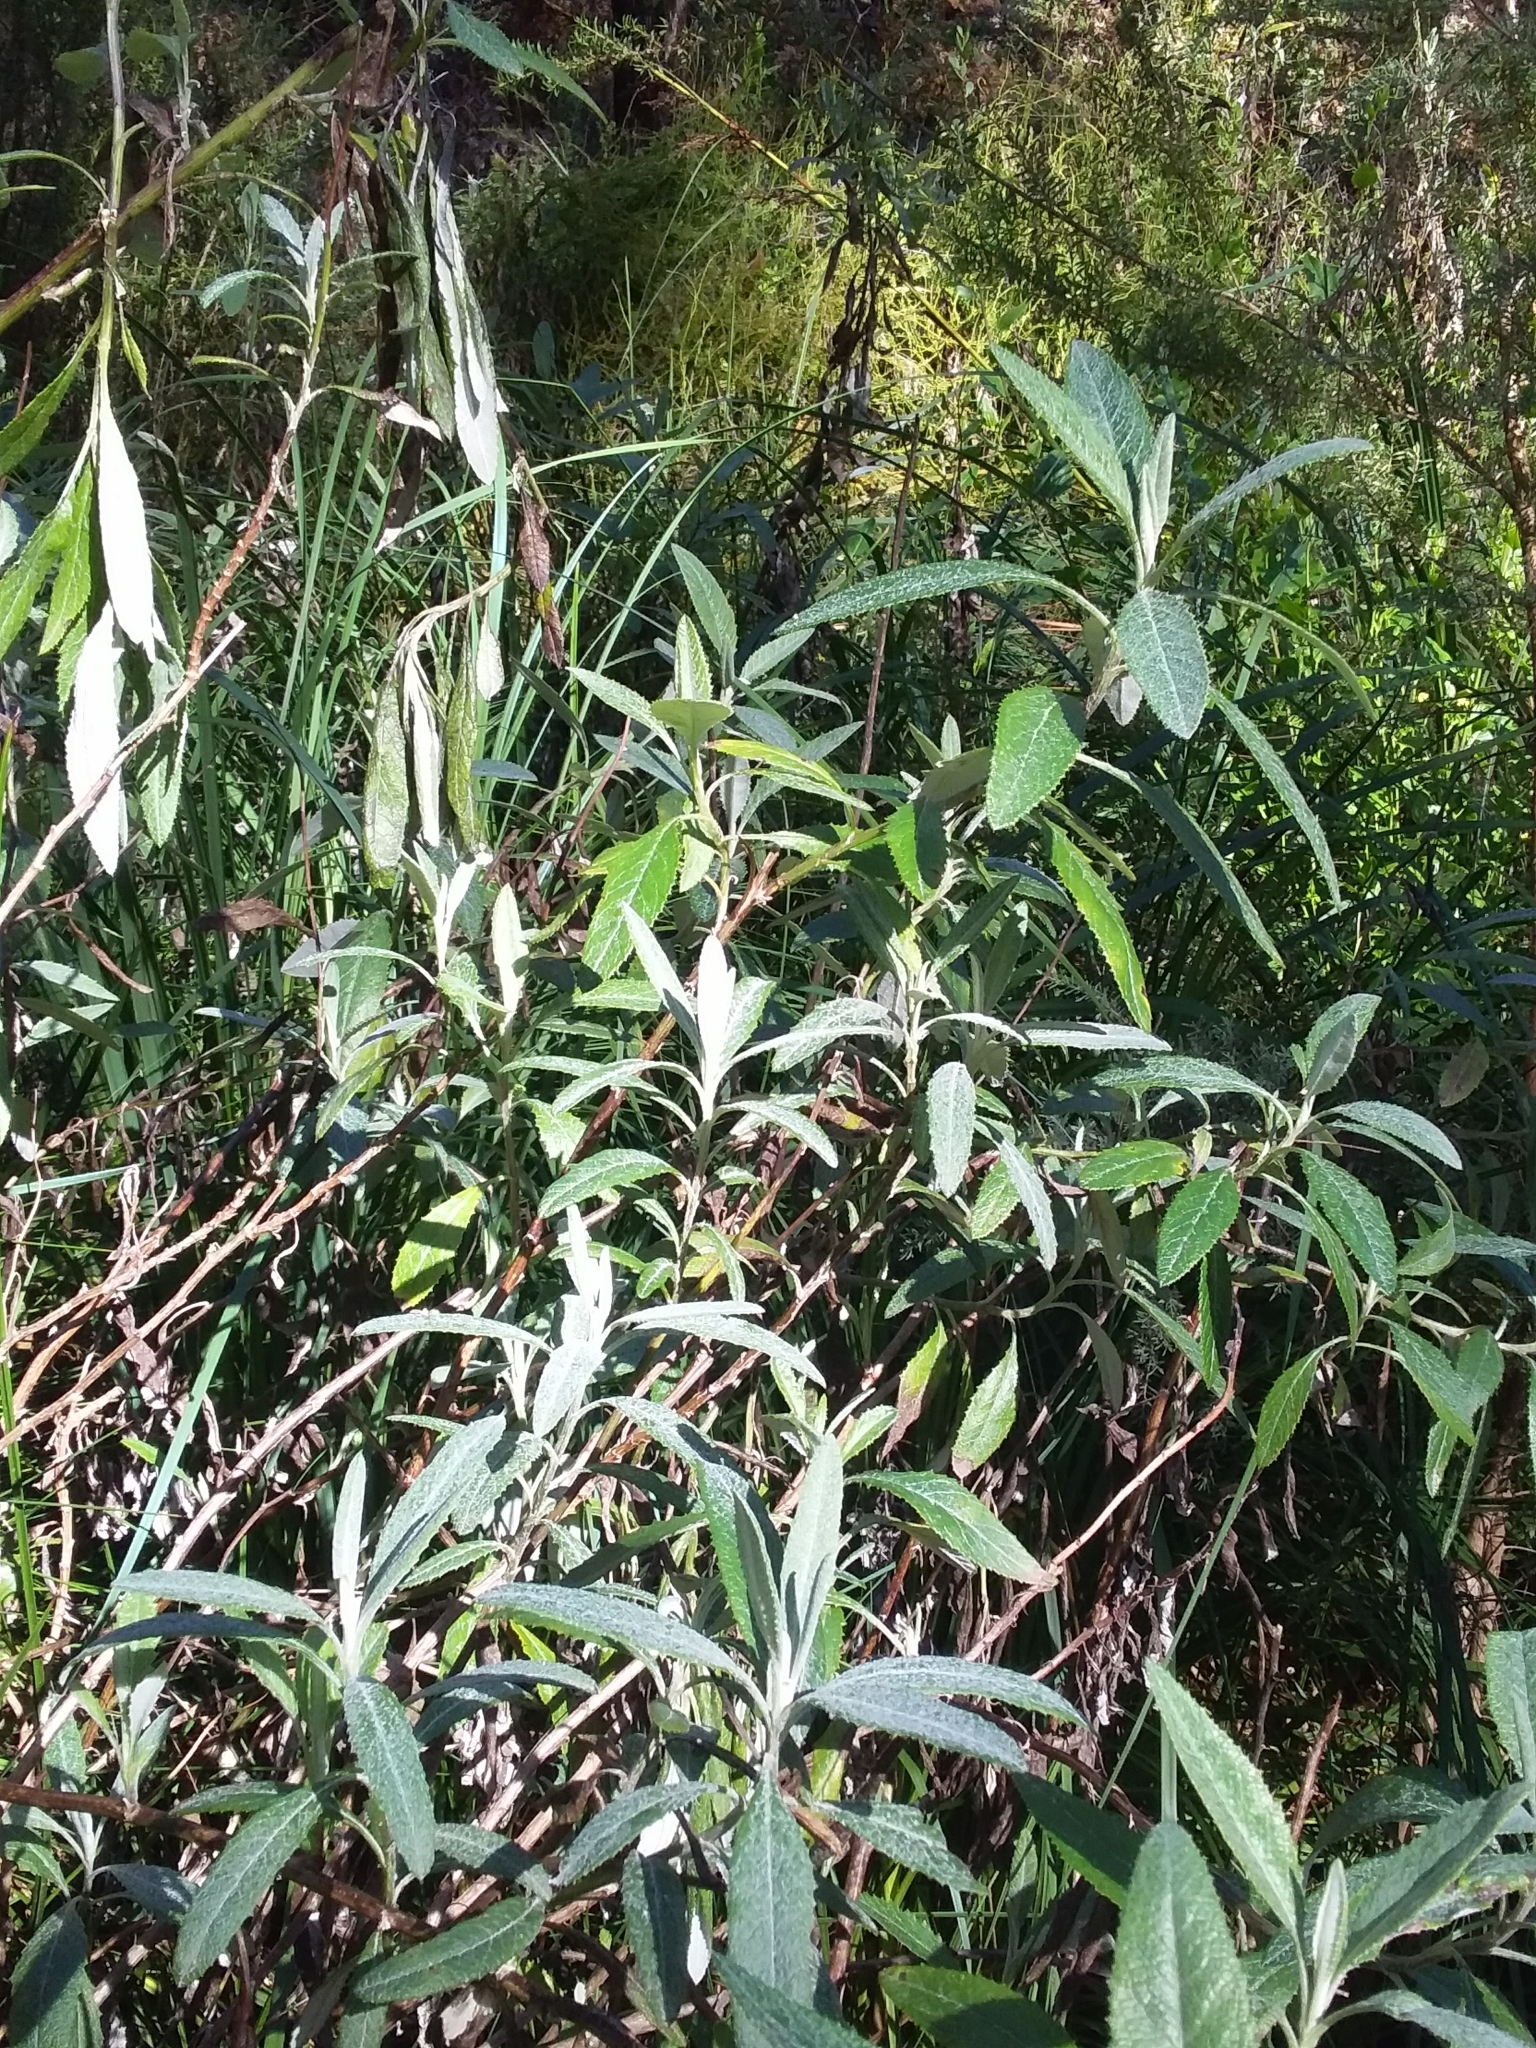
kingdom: Plantae
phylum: Tracheophyta
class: Magnoliopsida
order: Asterales
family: Asteraceae
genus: Senecio
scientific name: Senecio hypoleucus
